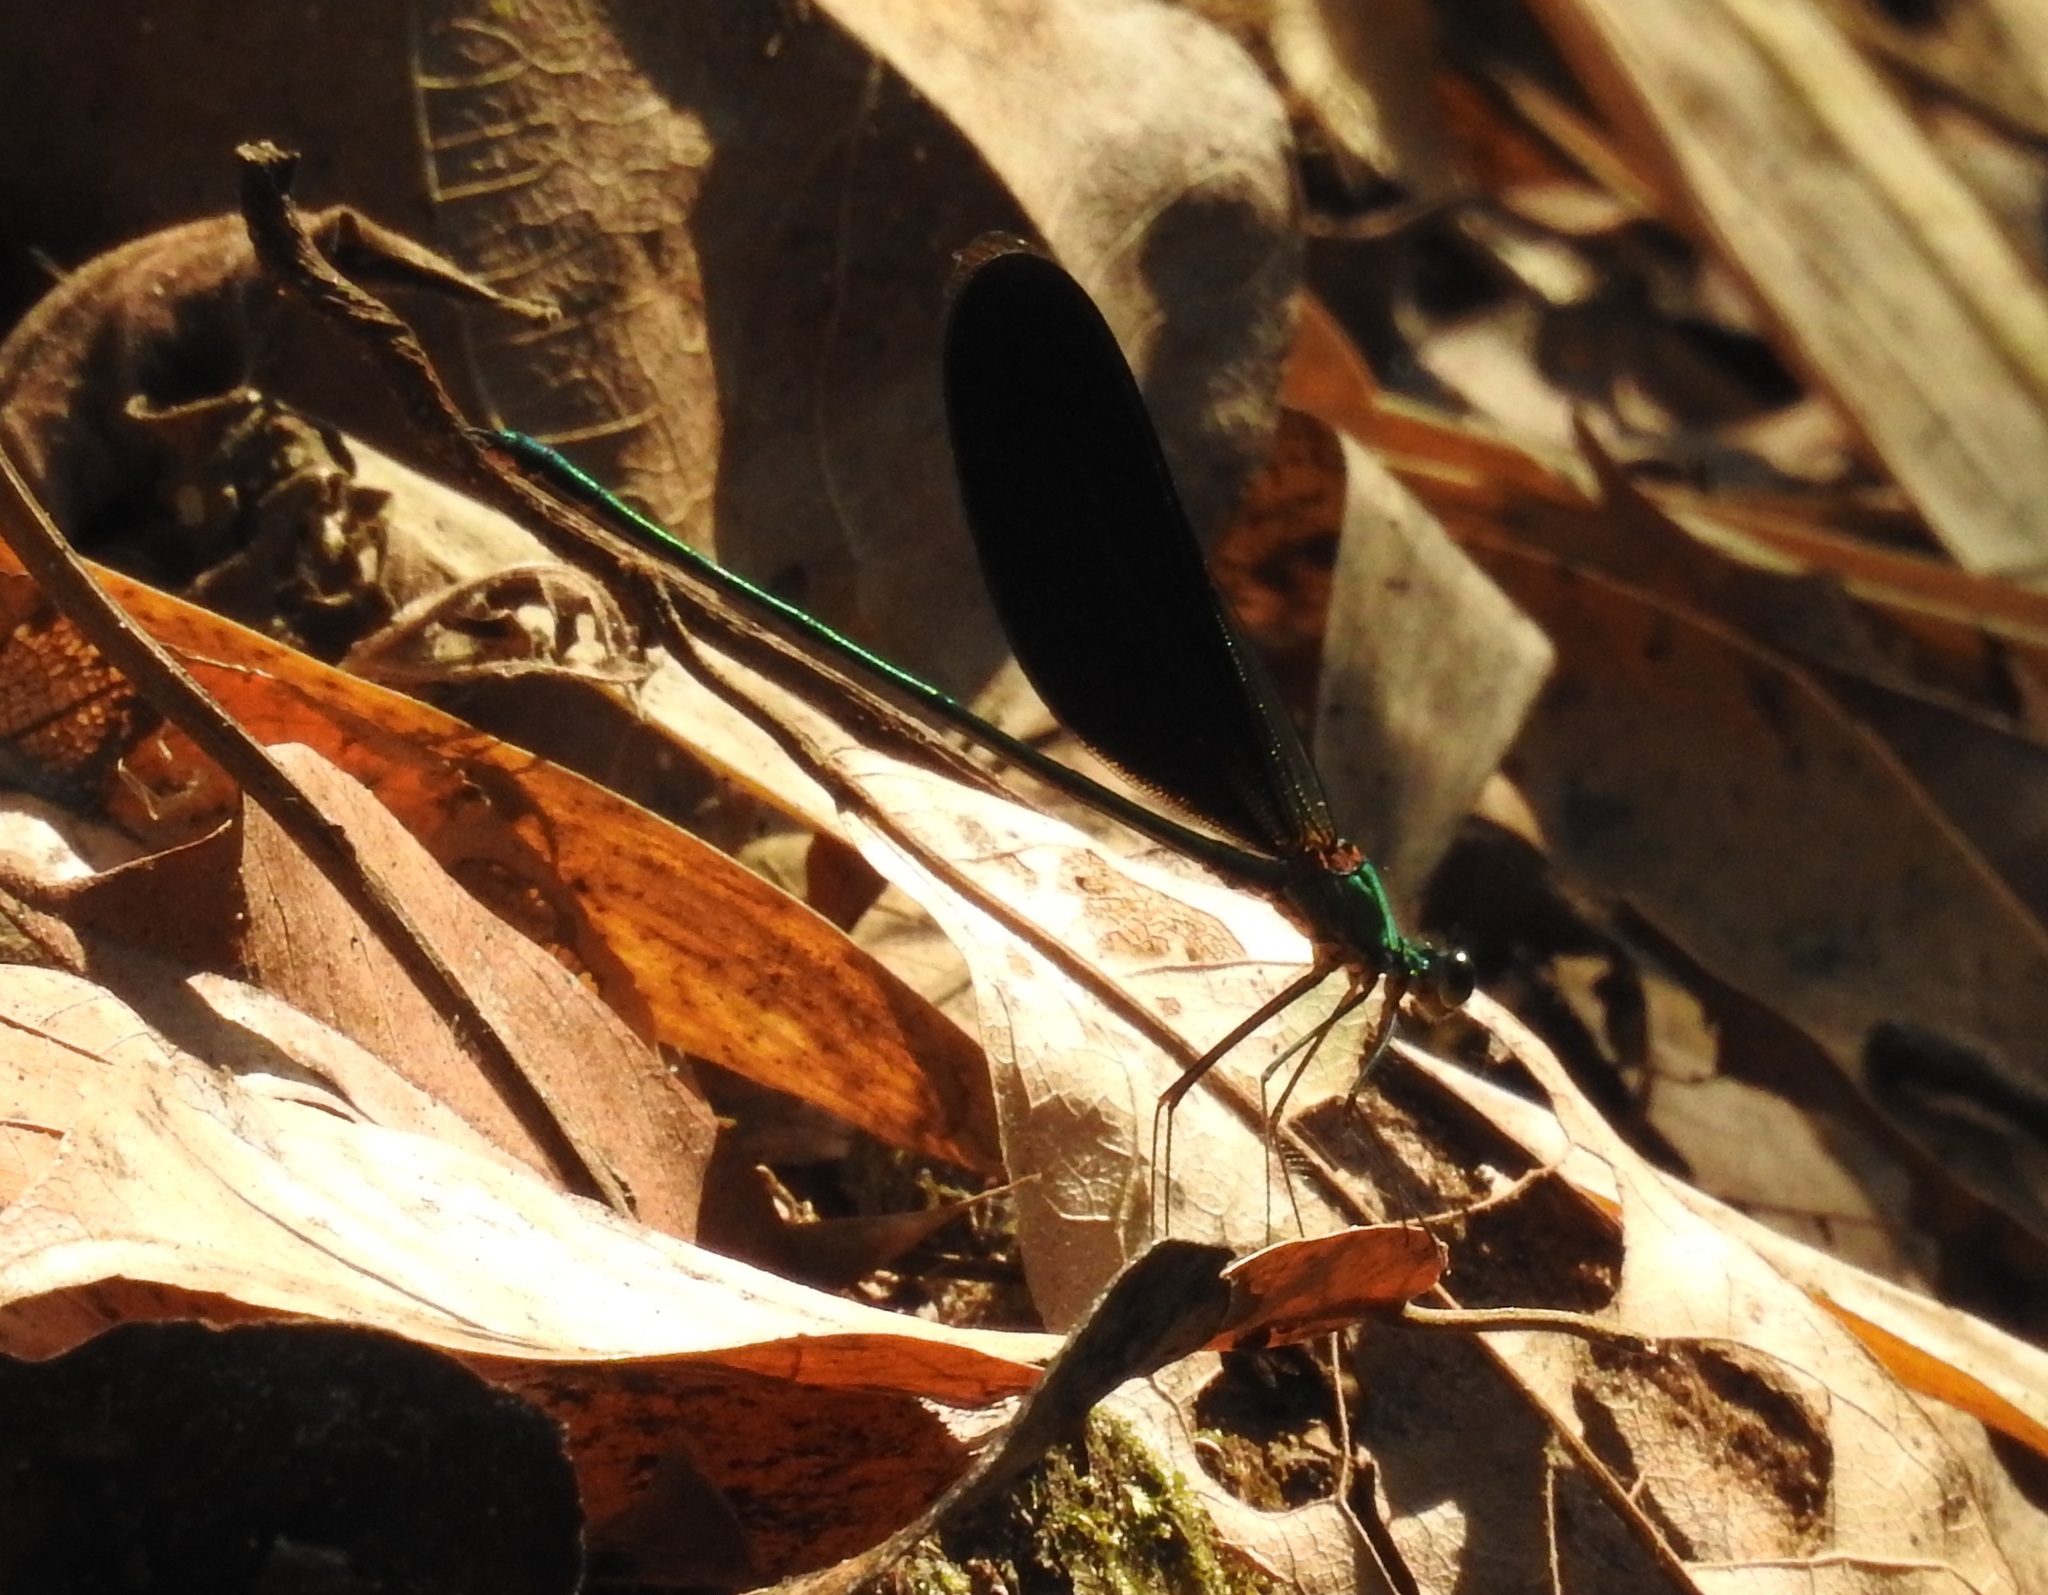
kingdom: Animalia
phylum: Arthropoda
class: Insecta
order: Odonata
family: Calopterygidae
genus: Neurobasis
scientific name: Neurobasis chinensis
